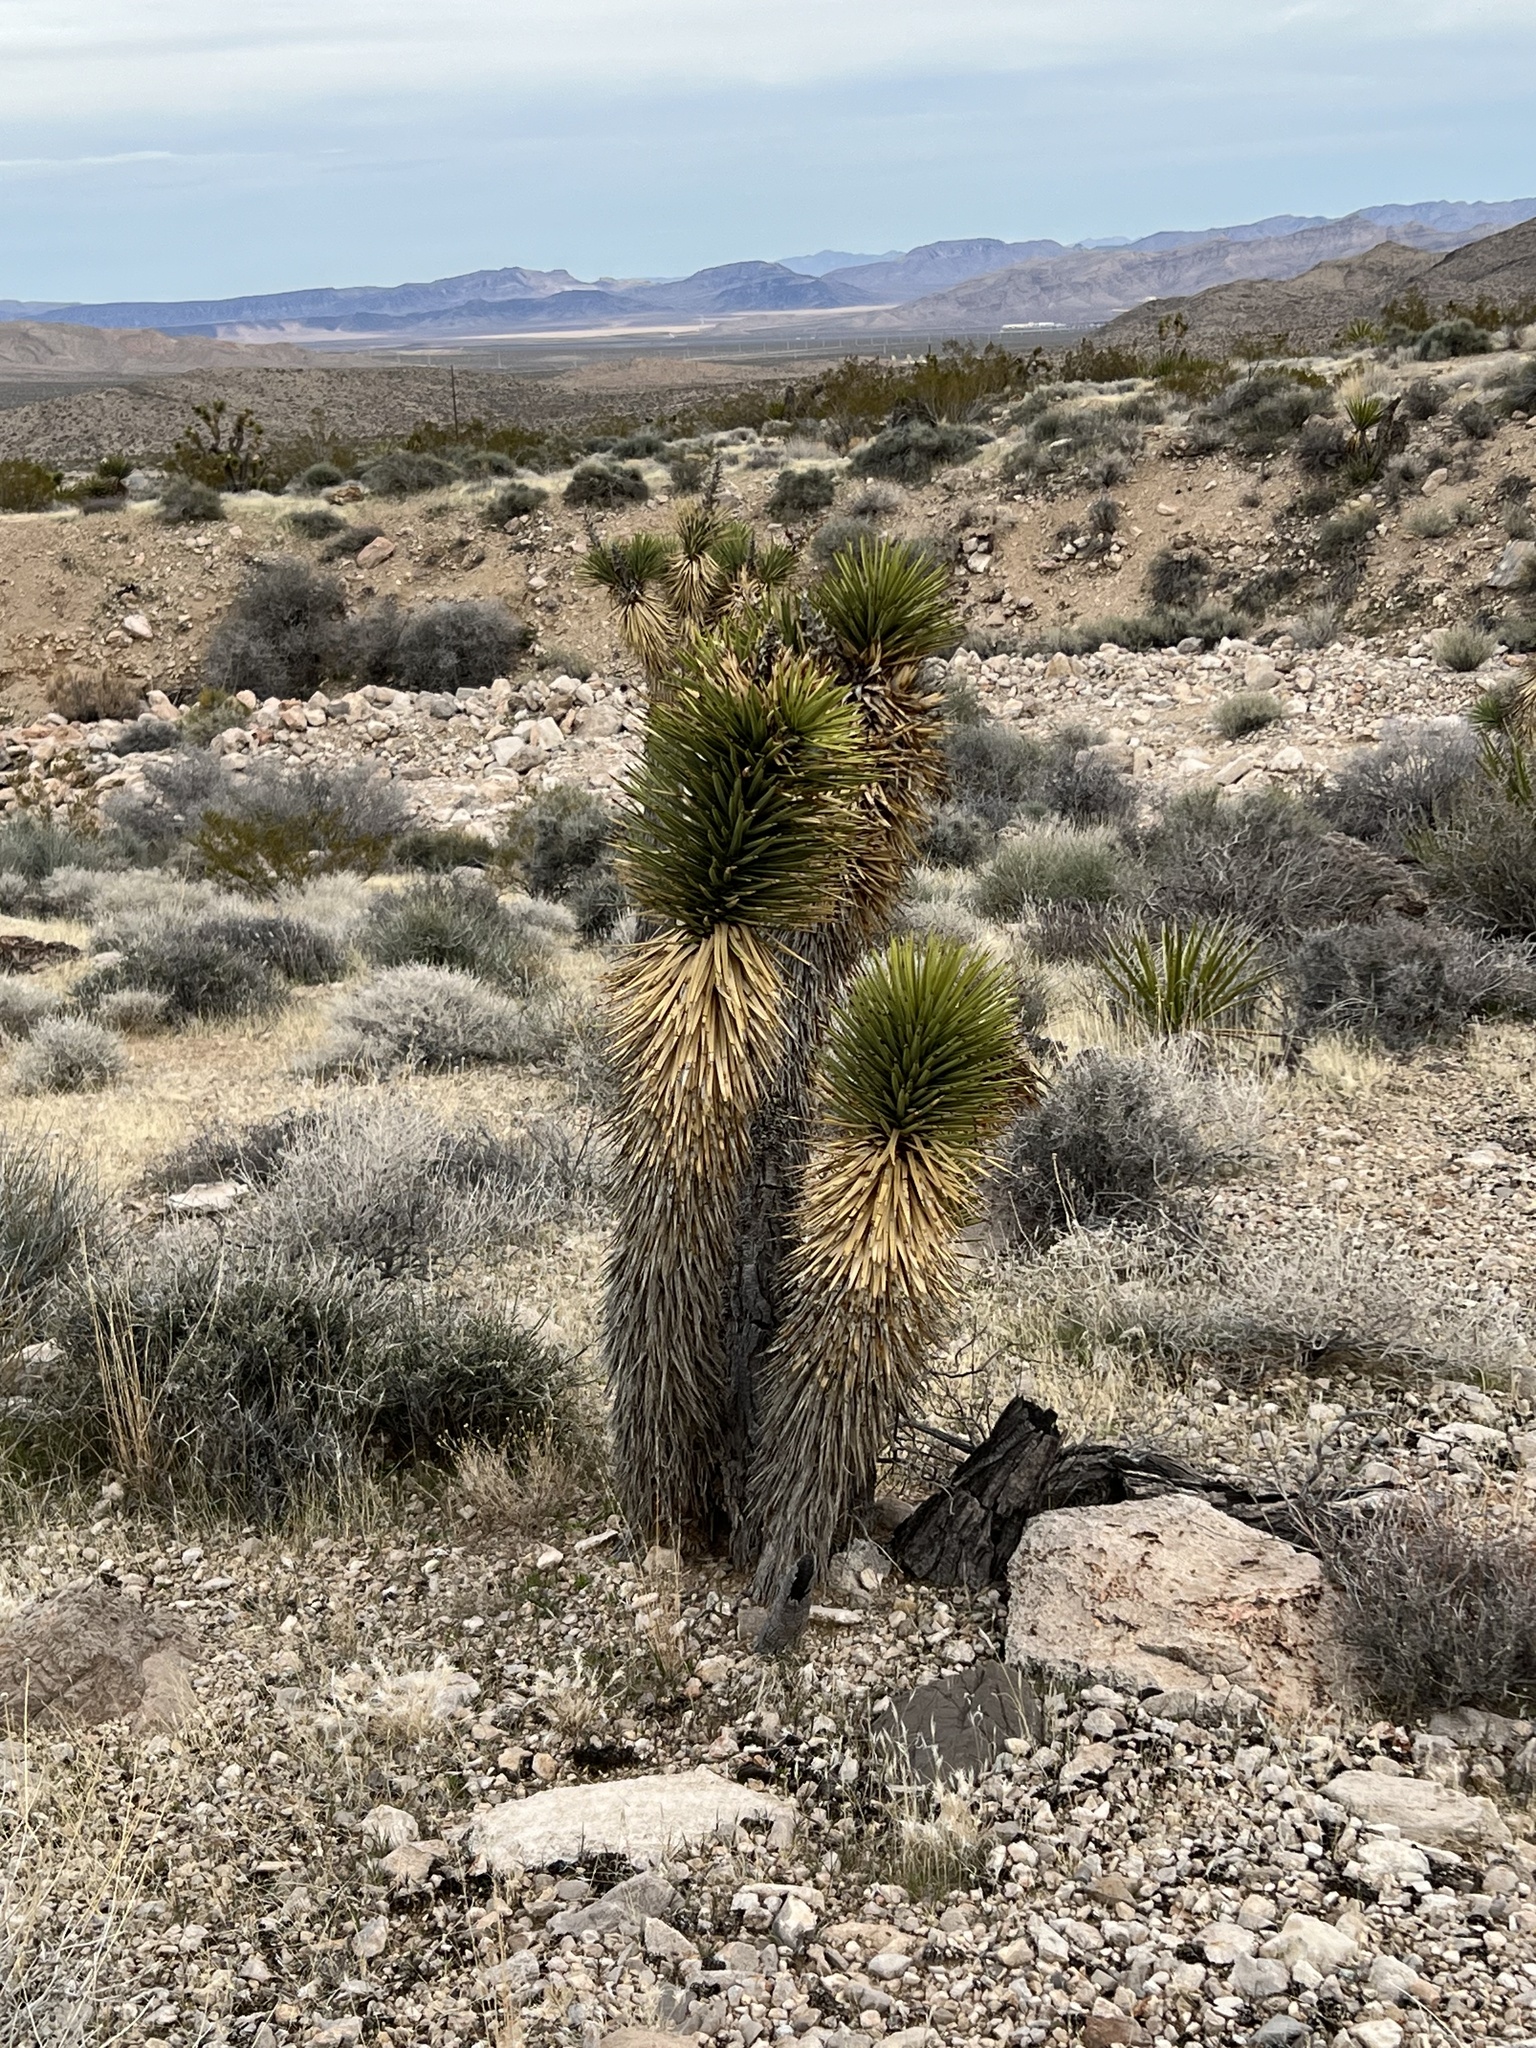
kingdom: Plantae
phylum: Tracheophyta
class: Liliopsida
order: Asparagales
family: Asparagaceae
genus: Yucca
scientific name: Yucca brevifolia
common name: Joshua tree
